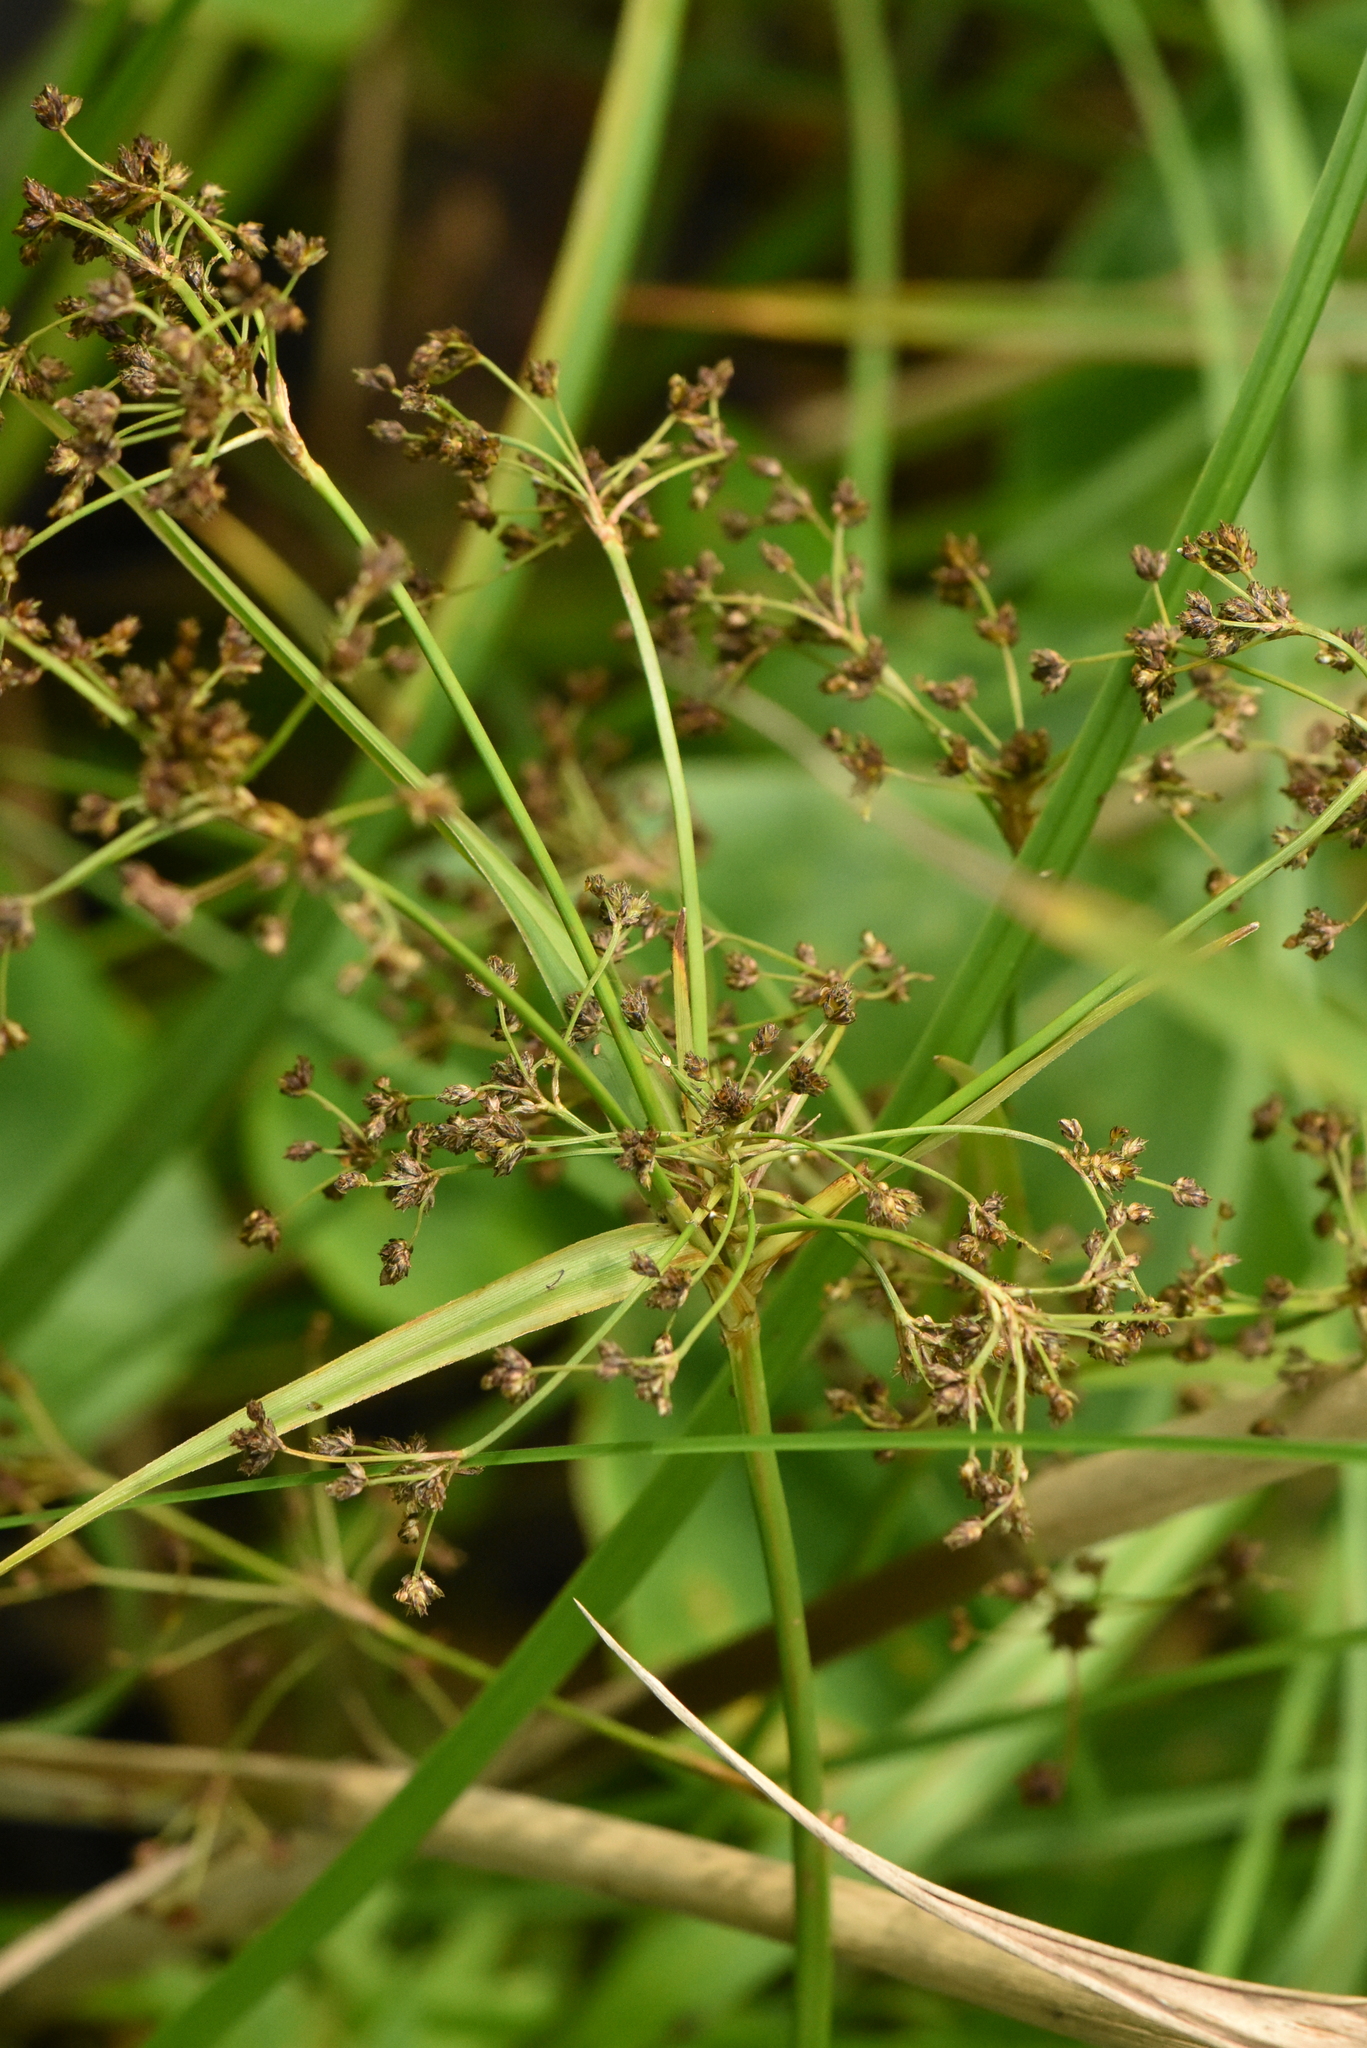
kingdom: Plantae
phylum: Tracheophyta
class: Liliopsida
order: Poales
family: Cyperaceae
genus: Scirpus
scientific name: Scirpus sylvaticus
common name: Wood club-rush
